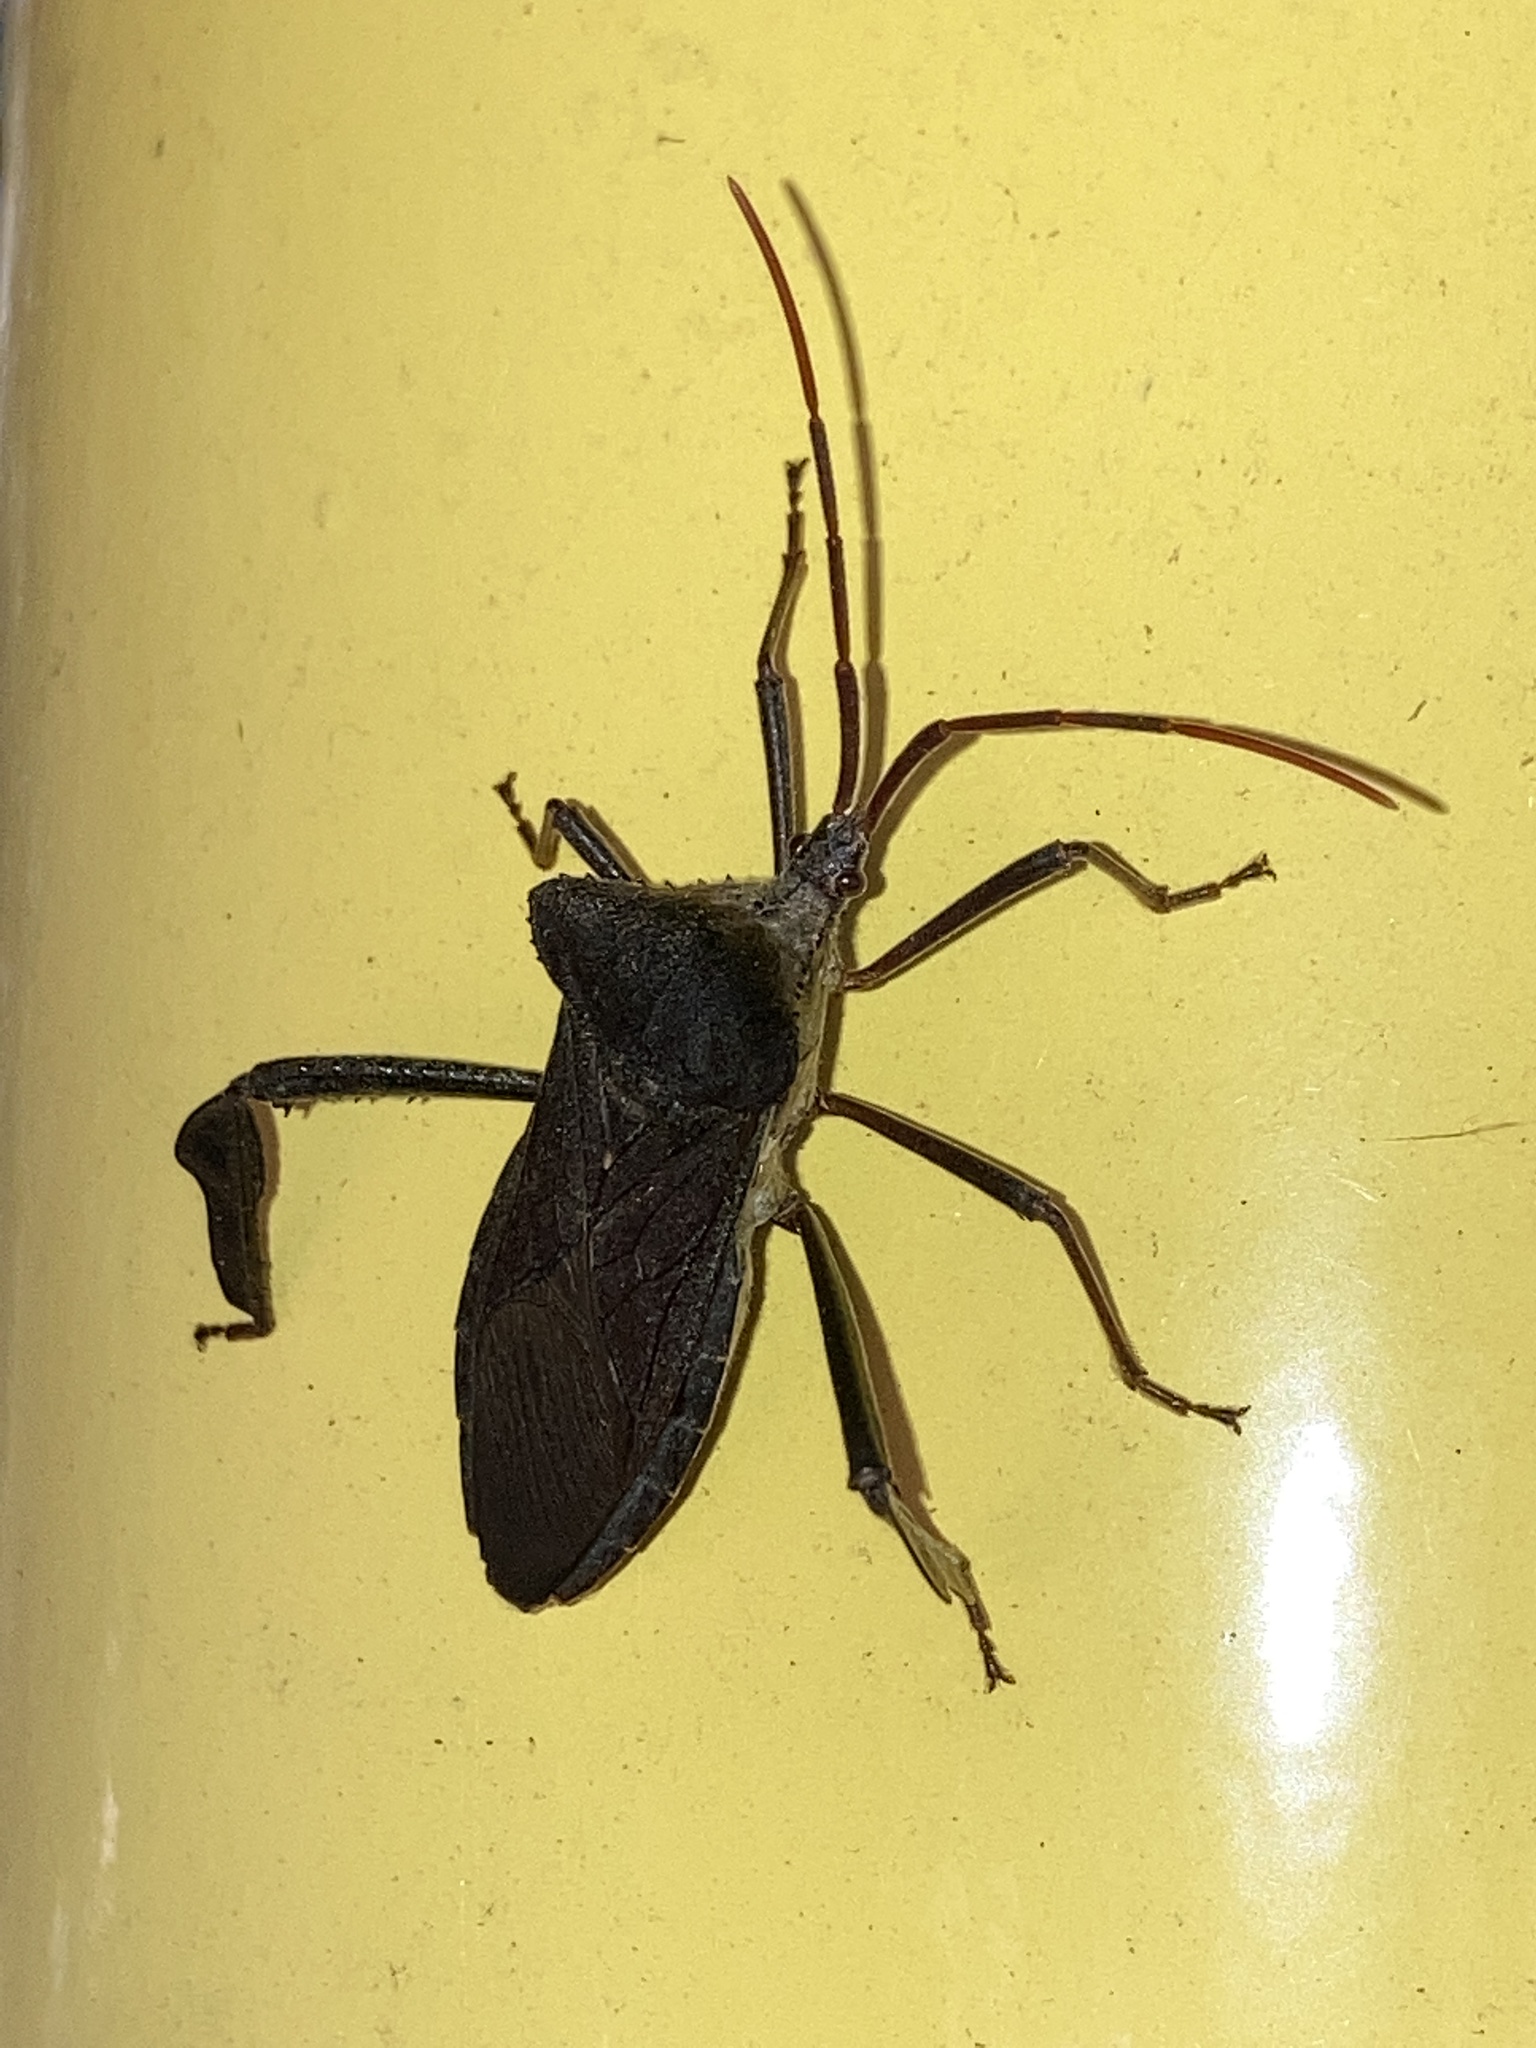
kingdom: Animalia
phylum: Arthropoda
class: Insecta
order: Hemiptera
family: Coreidae
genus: Acanthocephala
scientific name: Acanthocephala declivis
